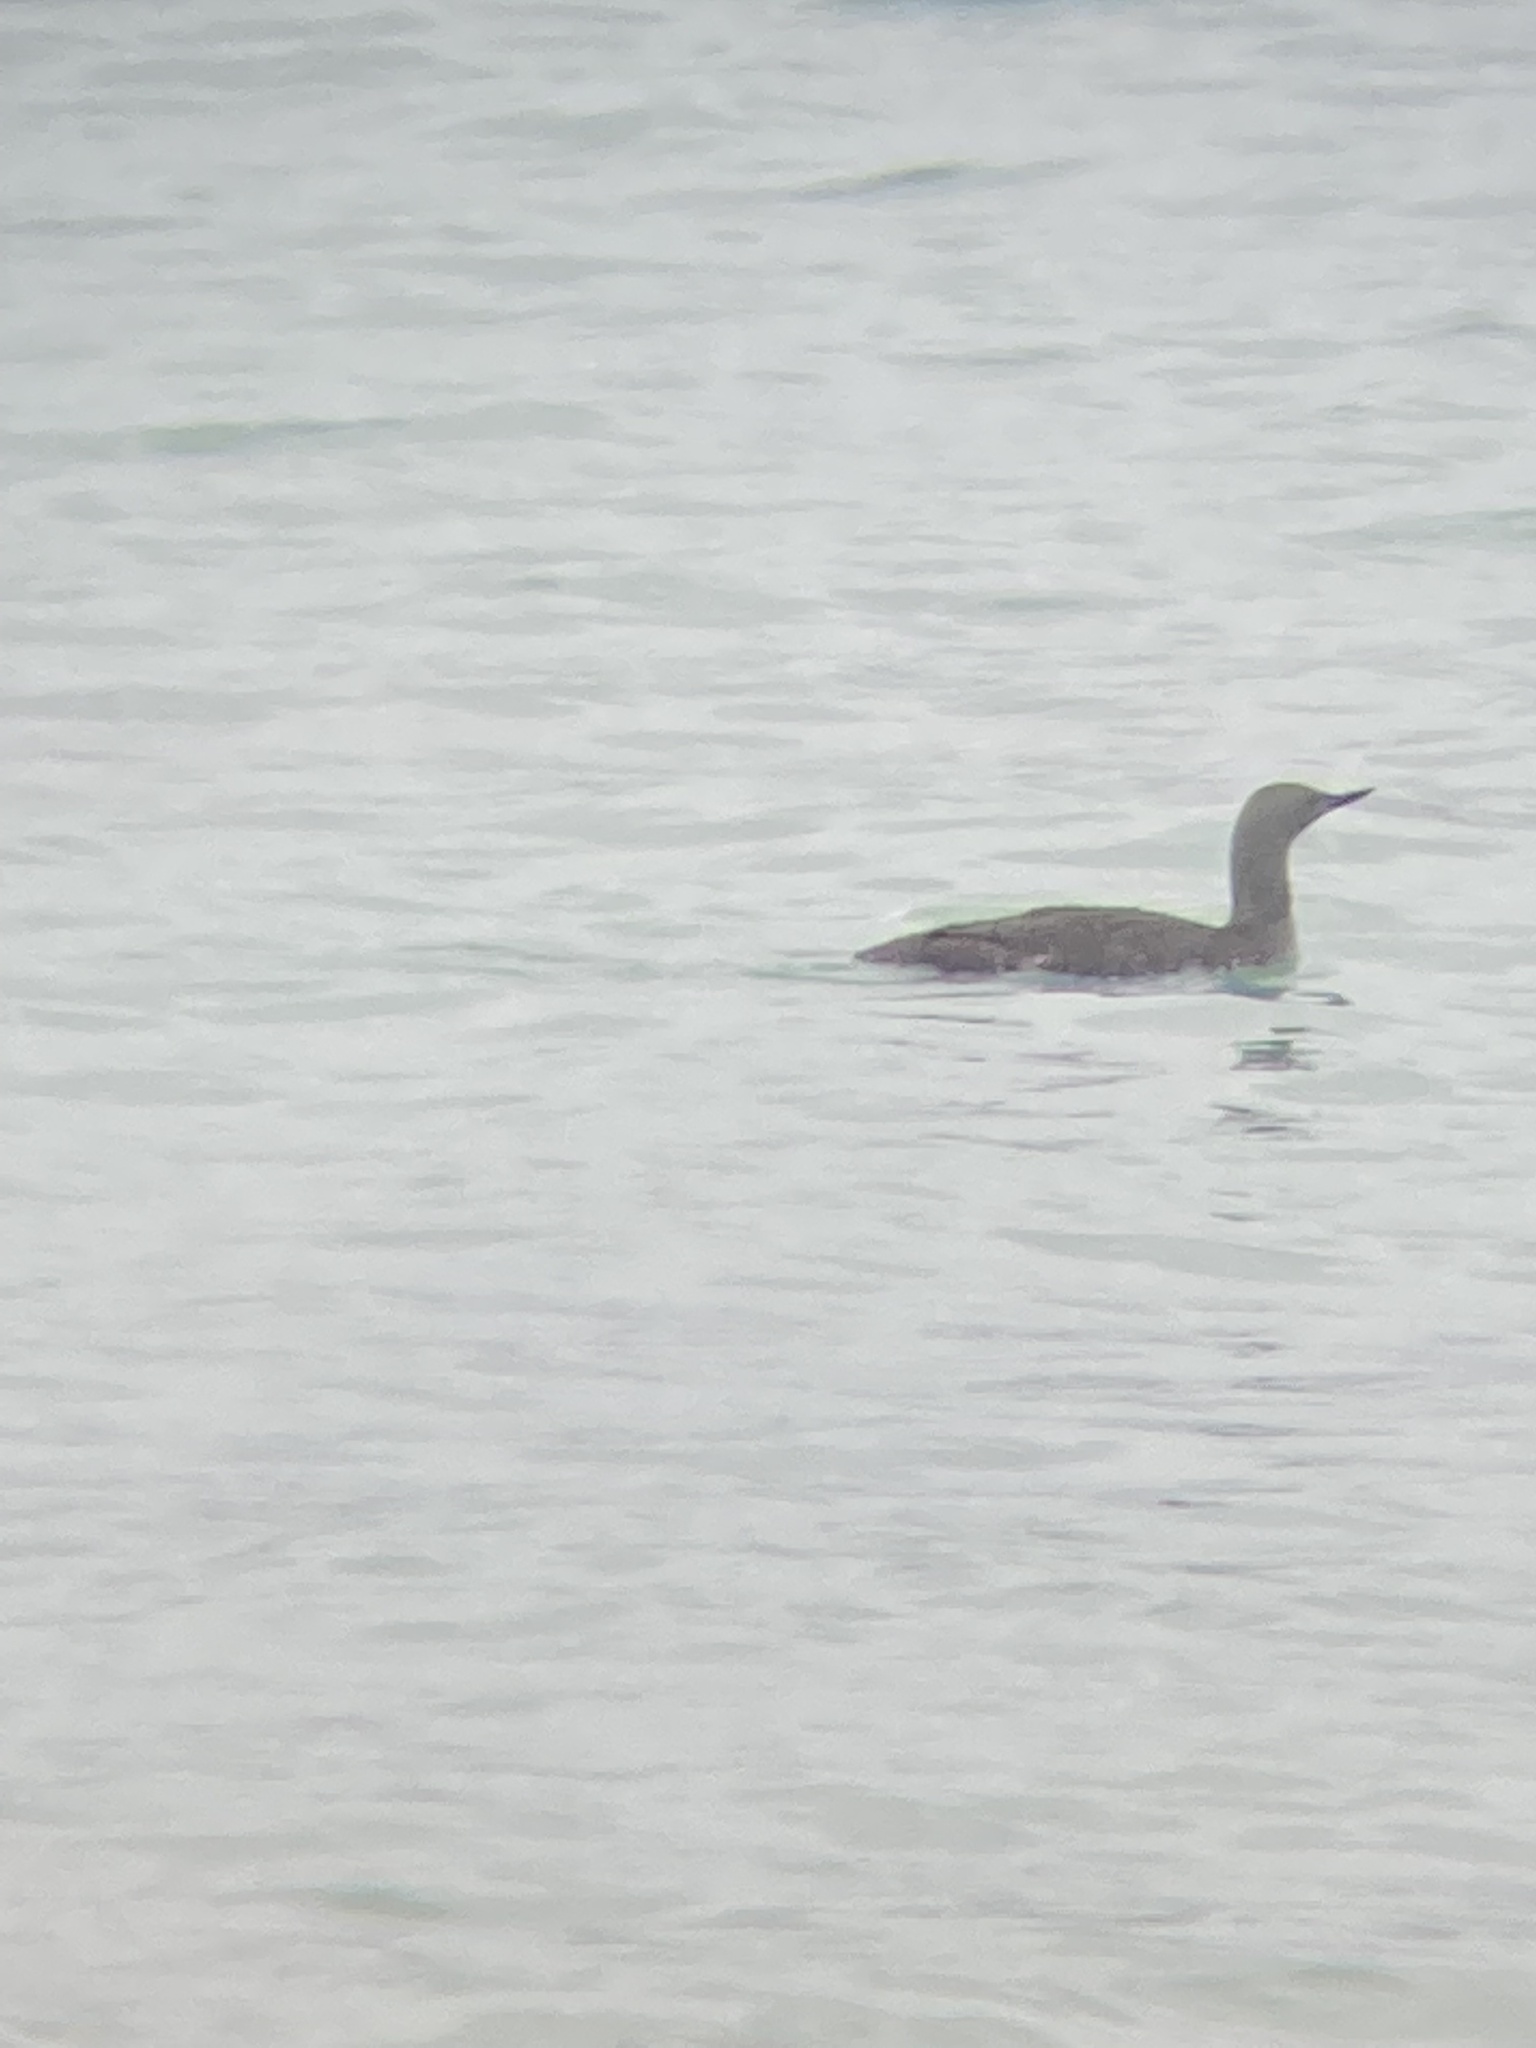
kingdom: Animalia
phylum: Chordata
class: Aves
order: Gaviiformes
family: Gaviidae
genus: Gavia
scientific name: Gavia stellata
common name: Red-throated loon
